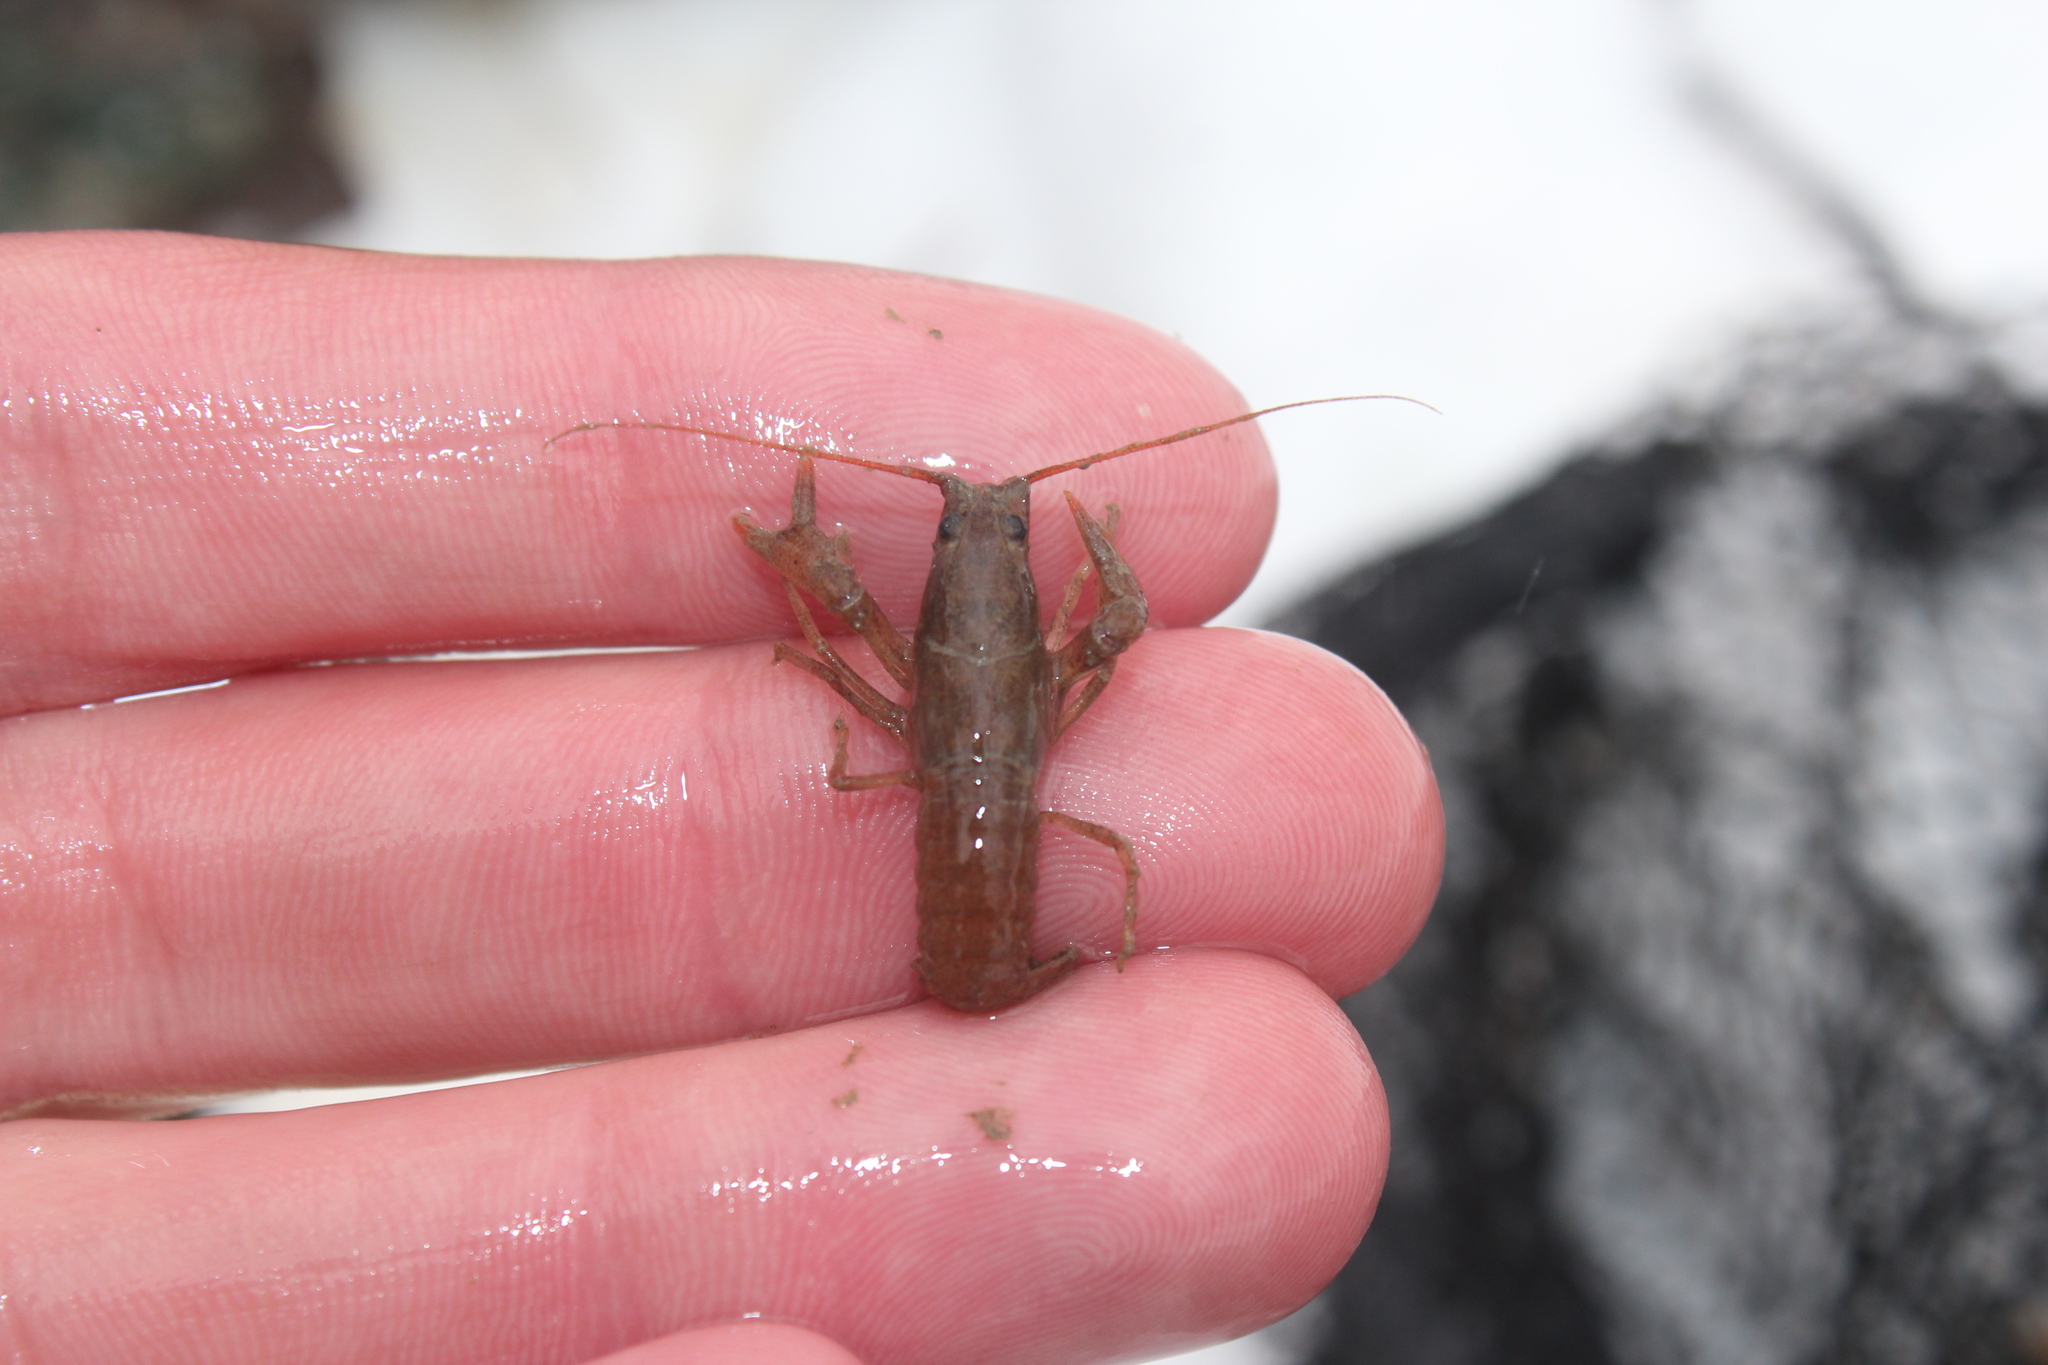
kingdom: Animalia
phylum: Arthropoda
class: Malacostraca
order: Decapoda
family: Cambaridae
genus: Cambarus
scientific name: Cambarus robustus
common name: Big water crayfish
